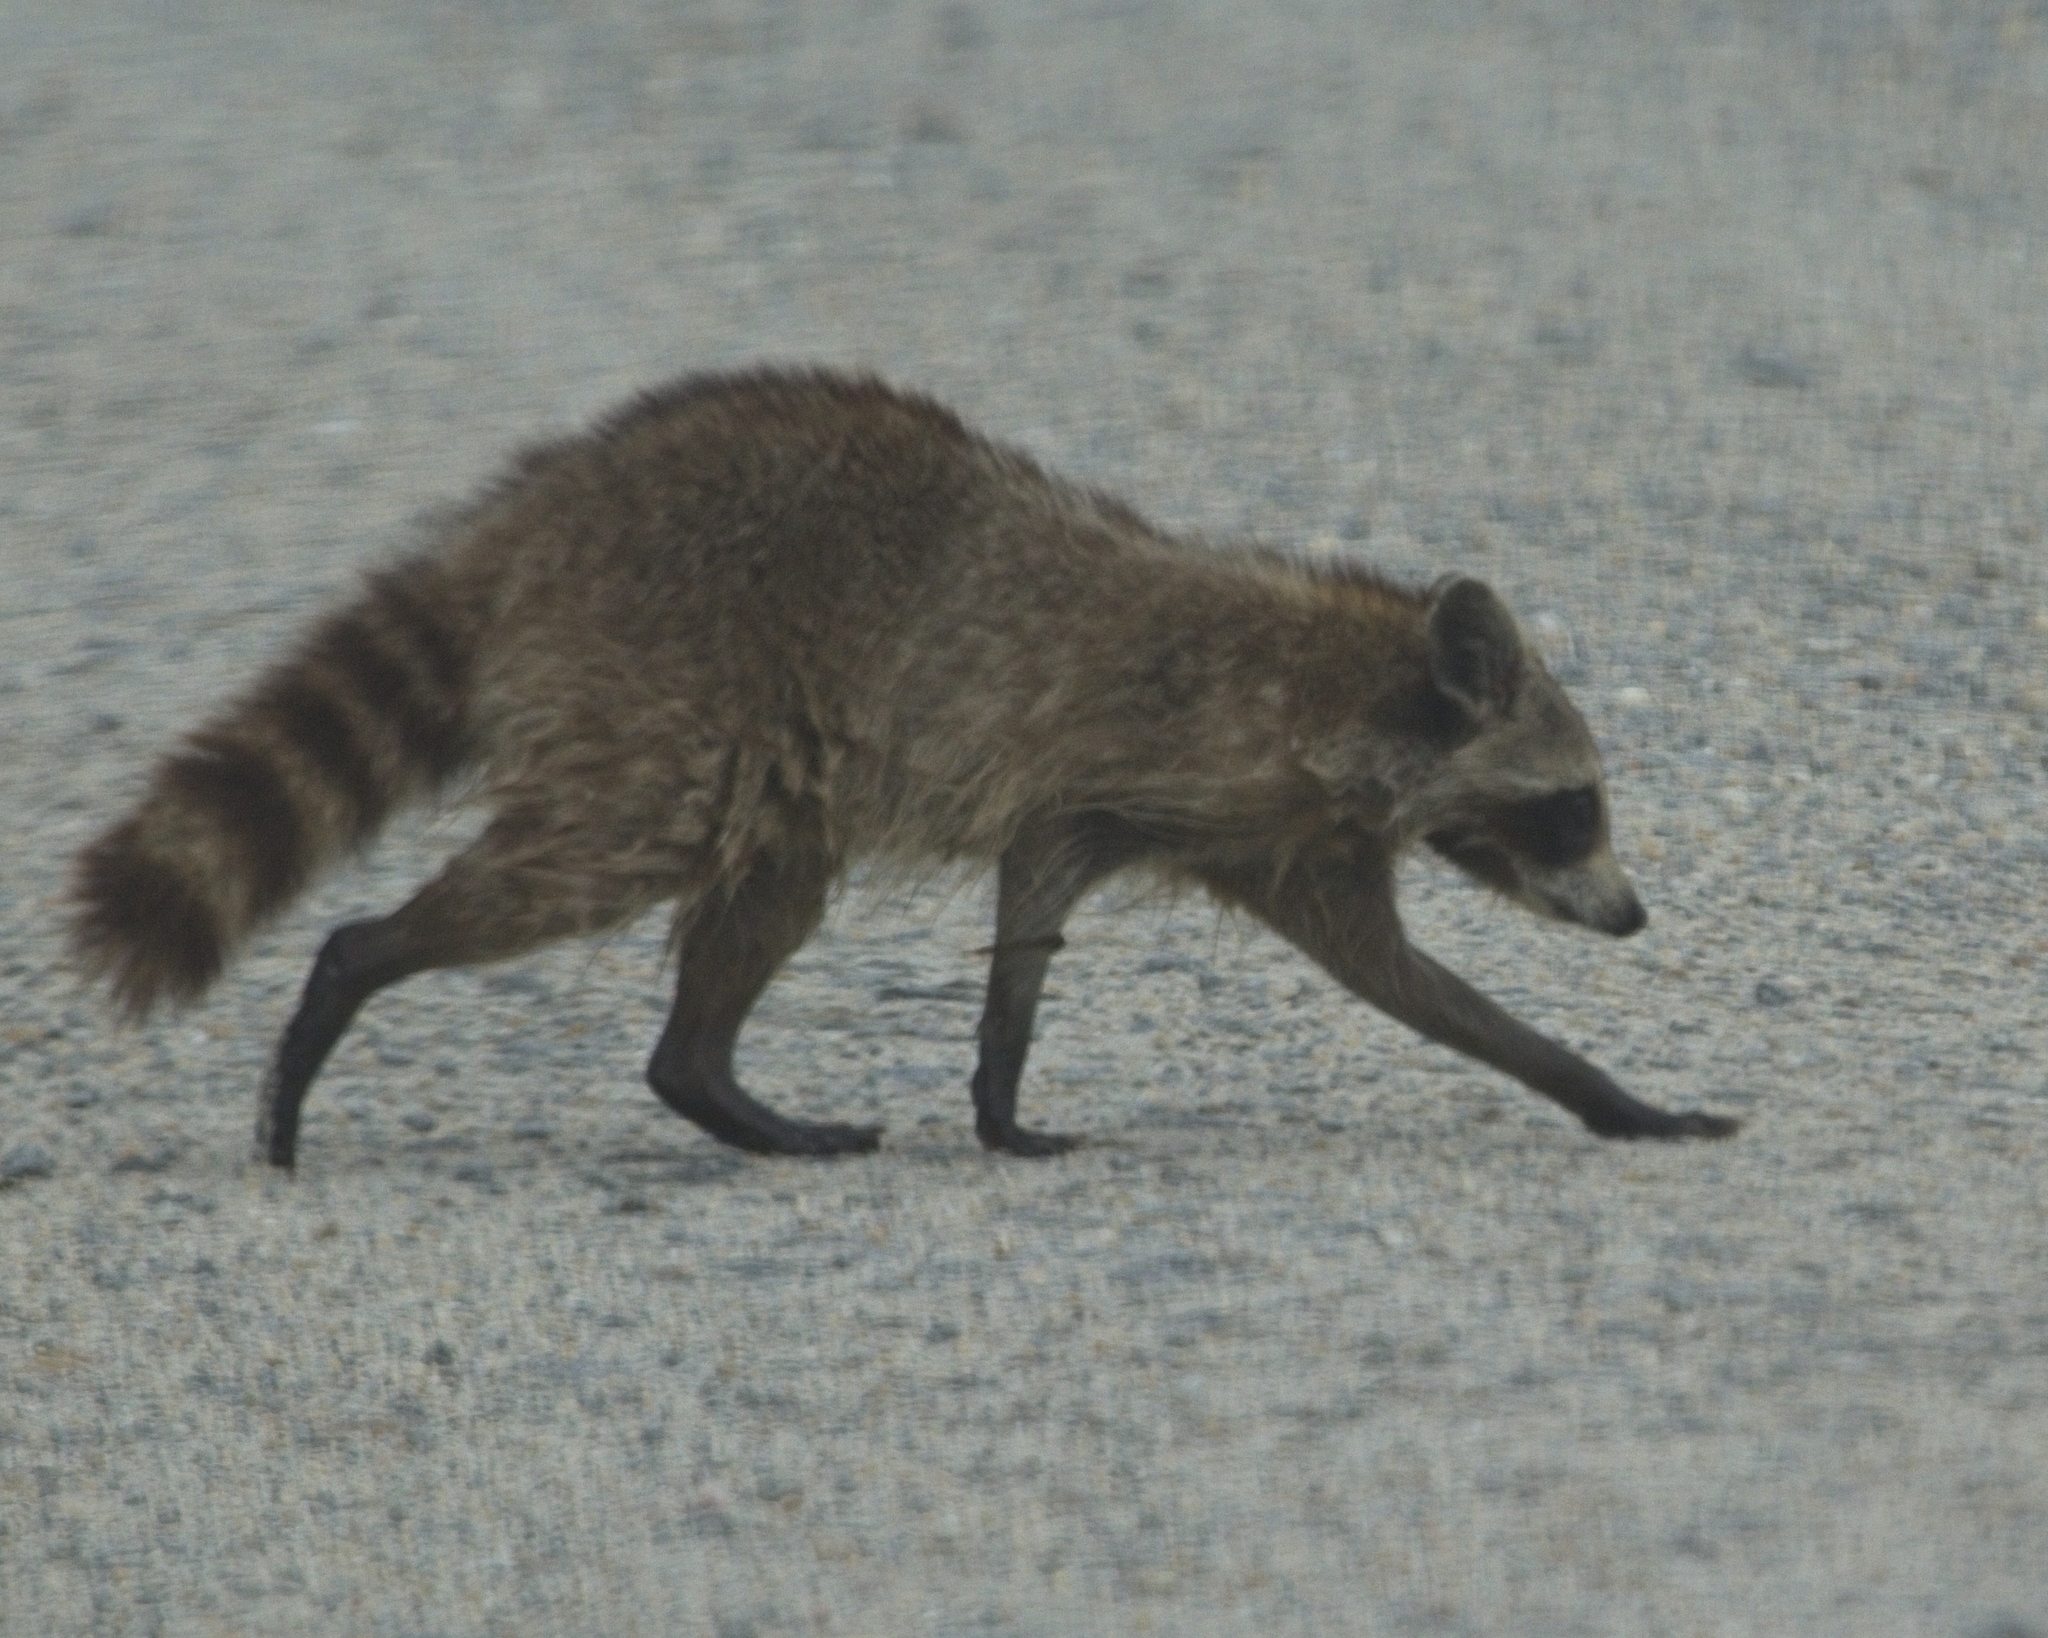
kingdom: Animalia
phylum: Chordata
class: Mammalia
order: Carnivora
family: Procyonidae
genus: Procyon
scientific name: Procyon lotor
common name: Raccoon
